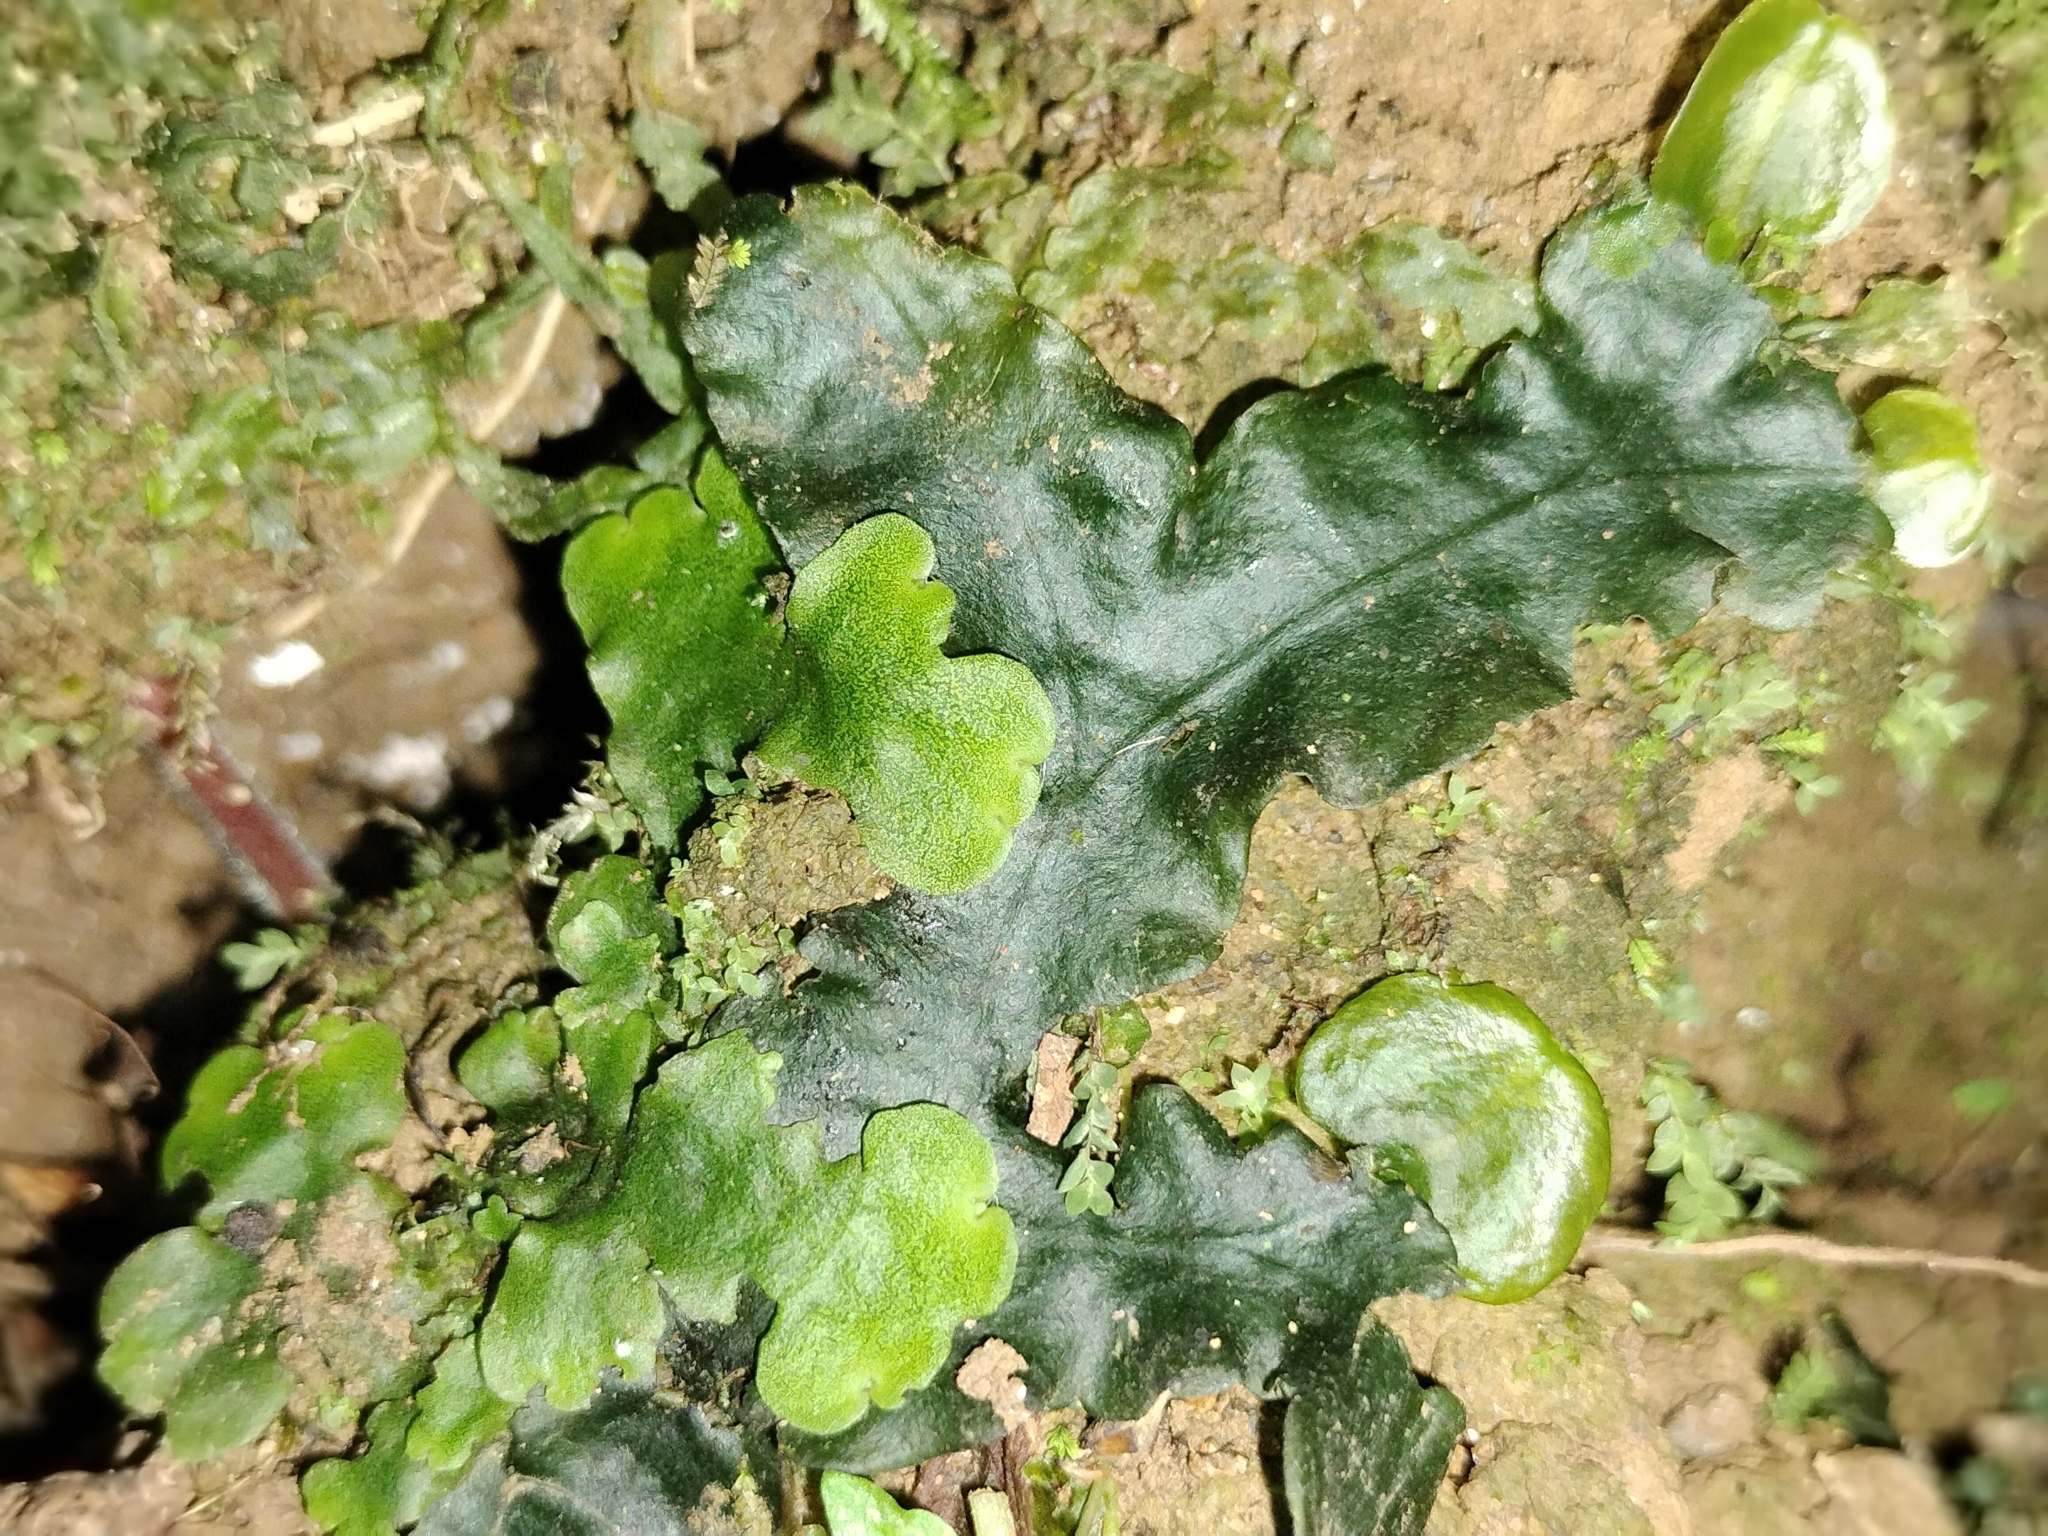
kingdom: Plantae
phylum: Marchantiophyta
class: Marchantiopsida
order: Marchantiales
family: Dumortieraceae
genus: Dumortiera
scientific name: Dumortiera hirsuta
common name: Dumortier's liverwort
